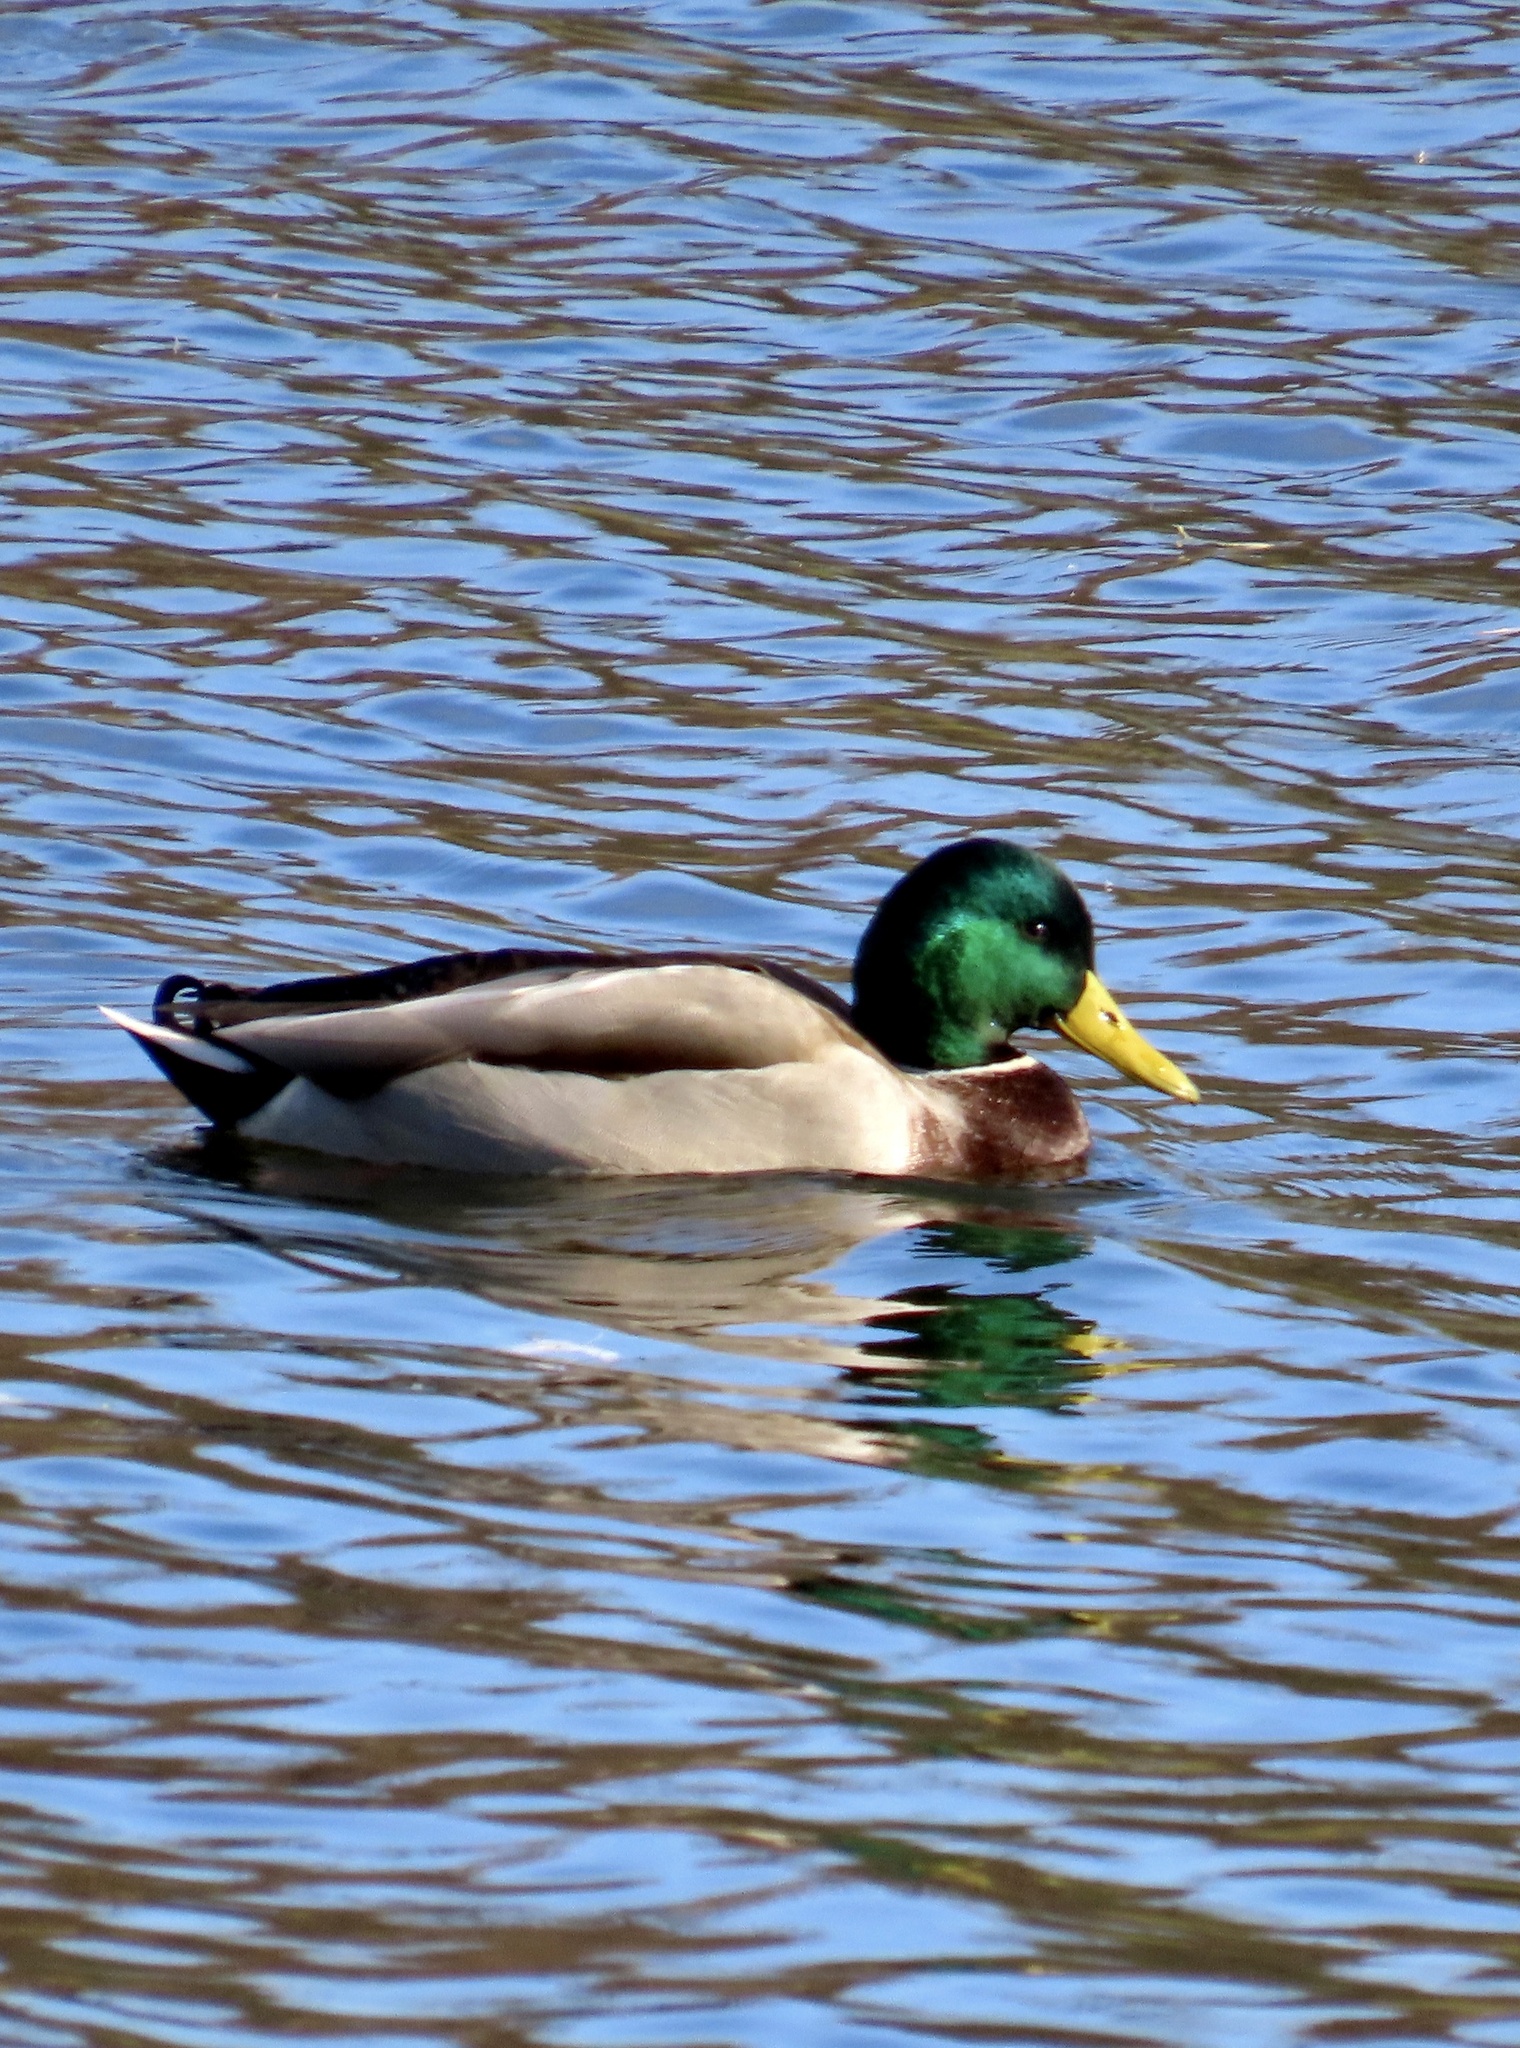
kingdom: Animalia
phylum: Chordata
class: Aves
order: Anseriformes
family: Anatidae
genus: Anas
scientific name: Anas platyrhynchos
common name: Mallard
